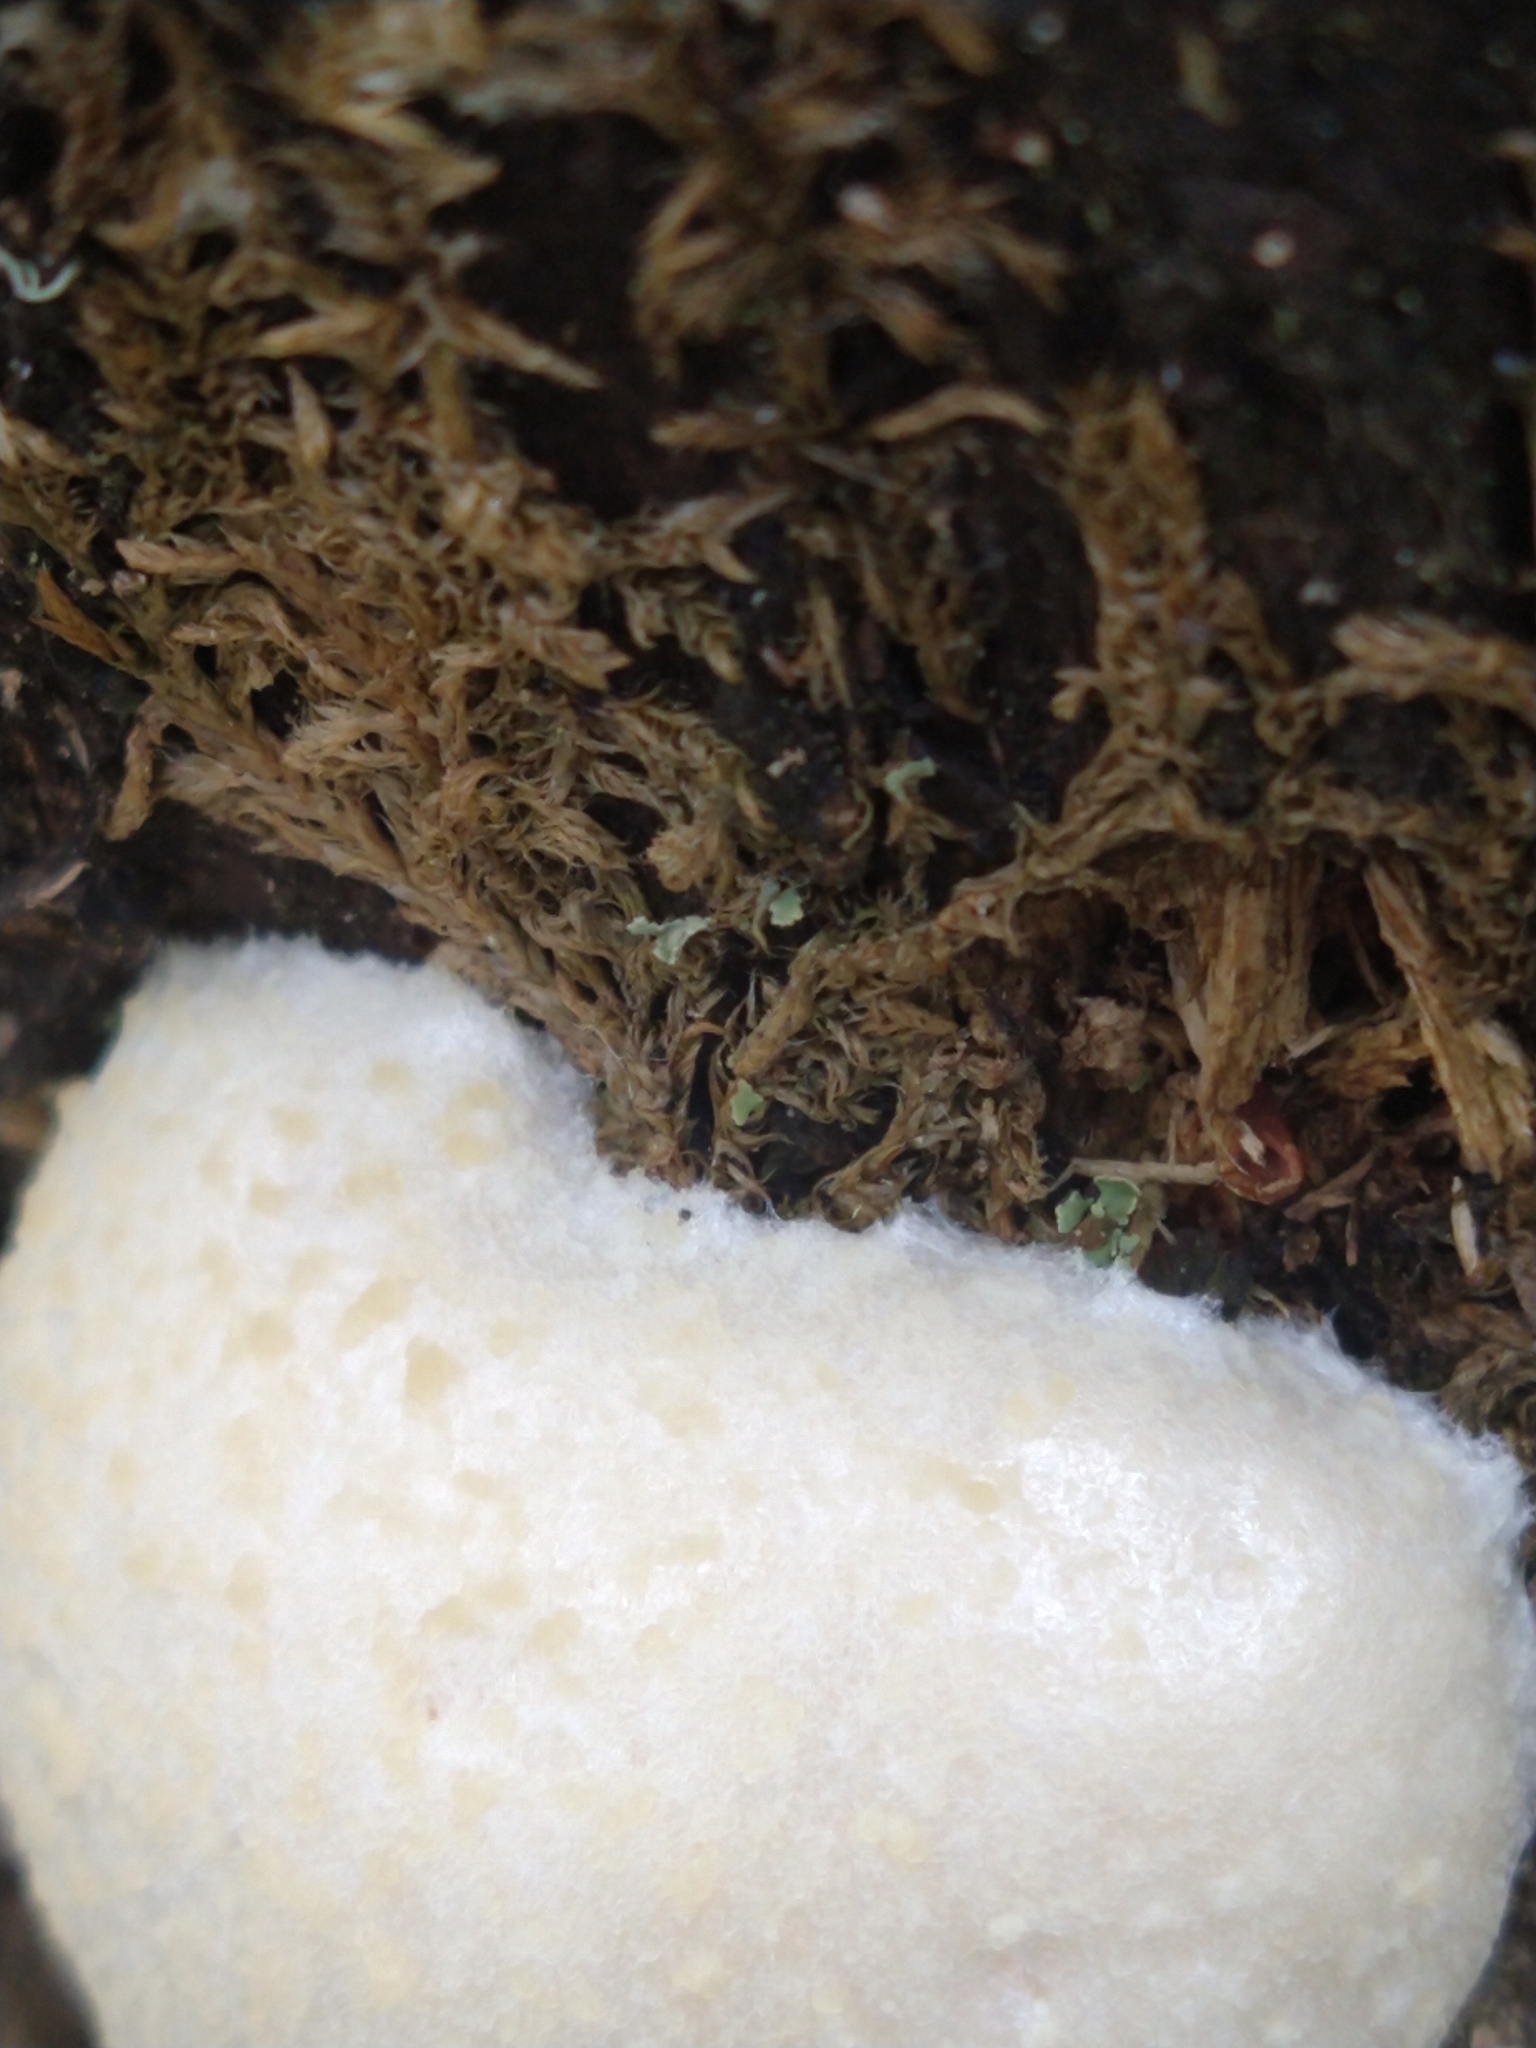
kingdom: Protozoa
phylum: Mycetozoa
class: Myxomycetes
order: Cribrariales
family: Tubiferaceae
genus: Reticularia
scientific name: Reticularia lycoperdon
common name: False puffball
